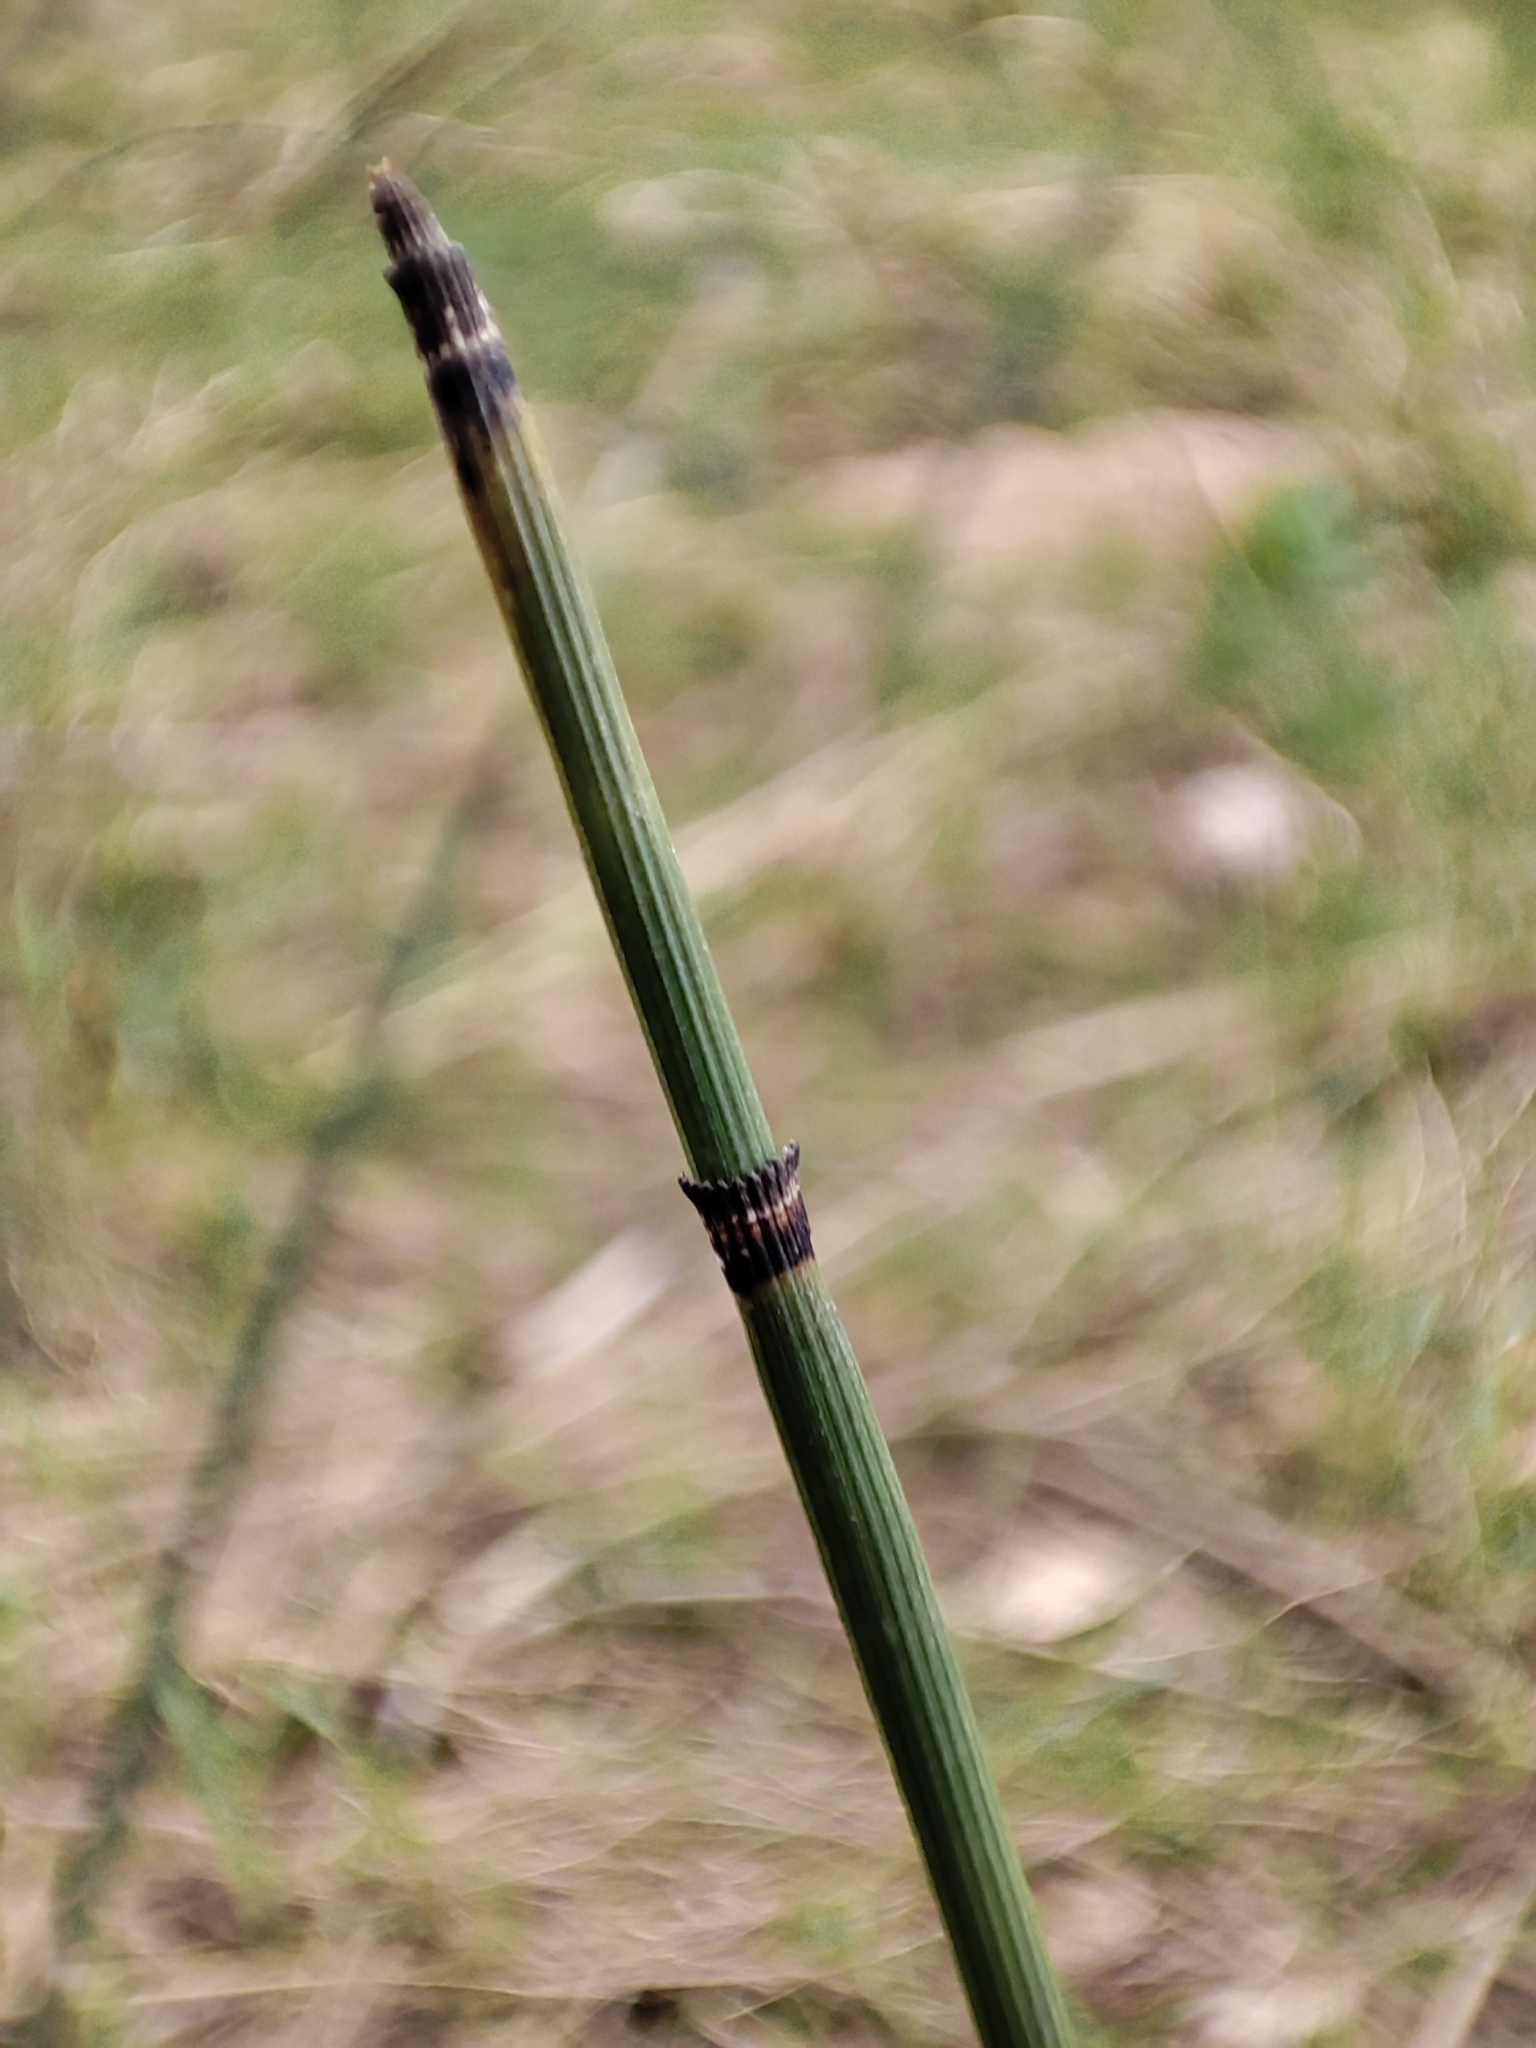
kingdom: Plantae
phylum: Tracheophyta
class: Polypodiopsida
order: Equisetales
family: Equisetaceae
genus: Equisetum
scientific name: Equisetum hyemale
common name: Rough horsetail
